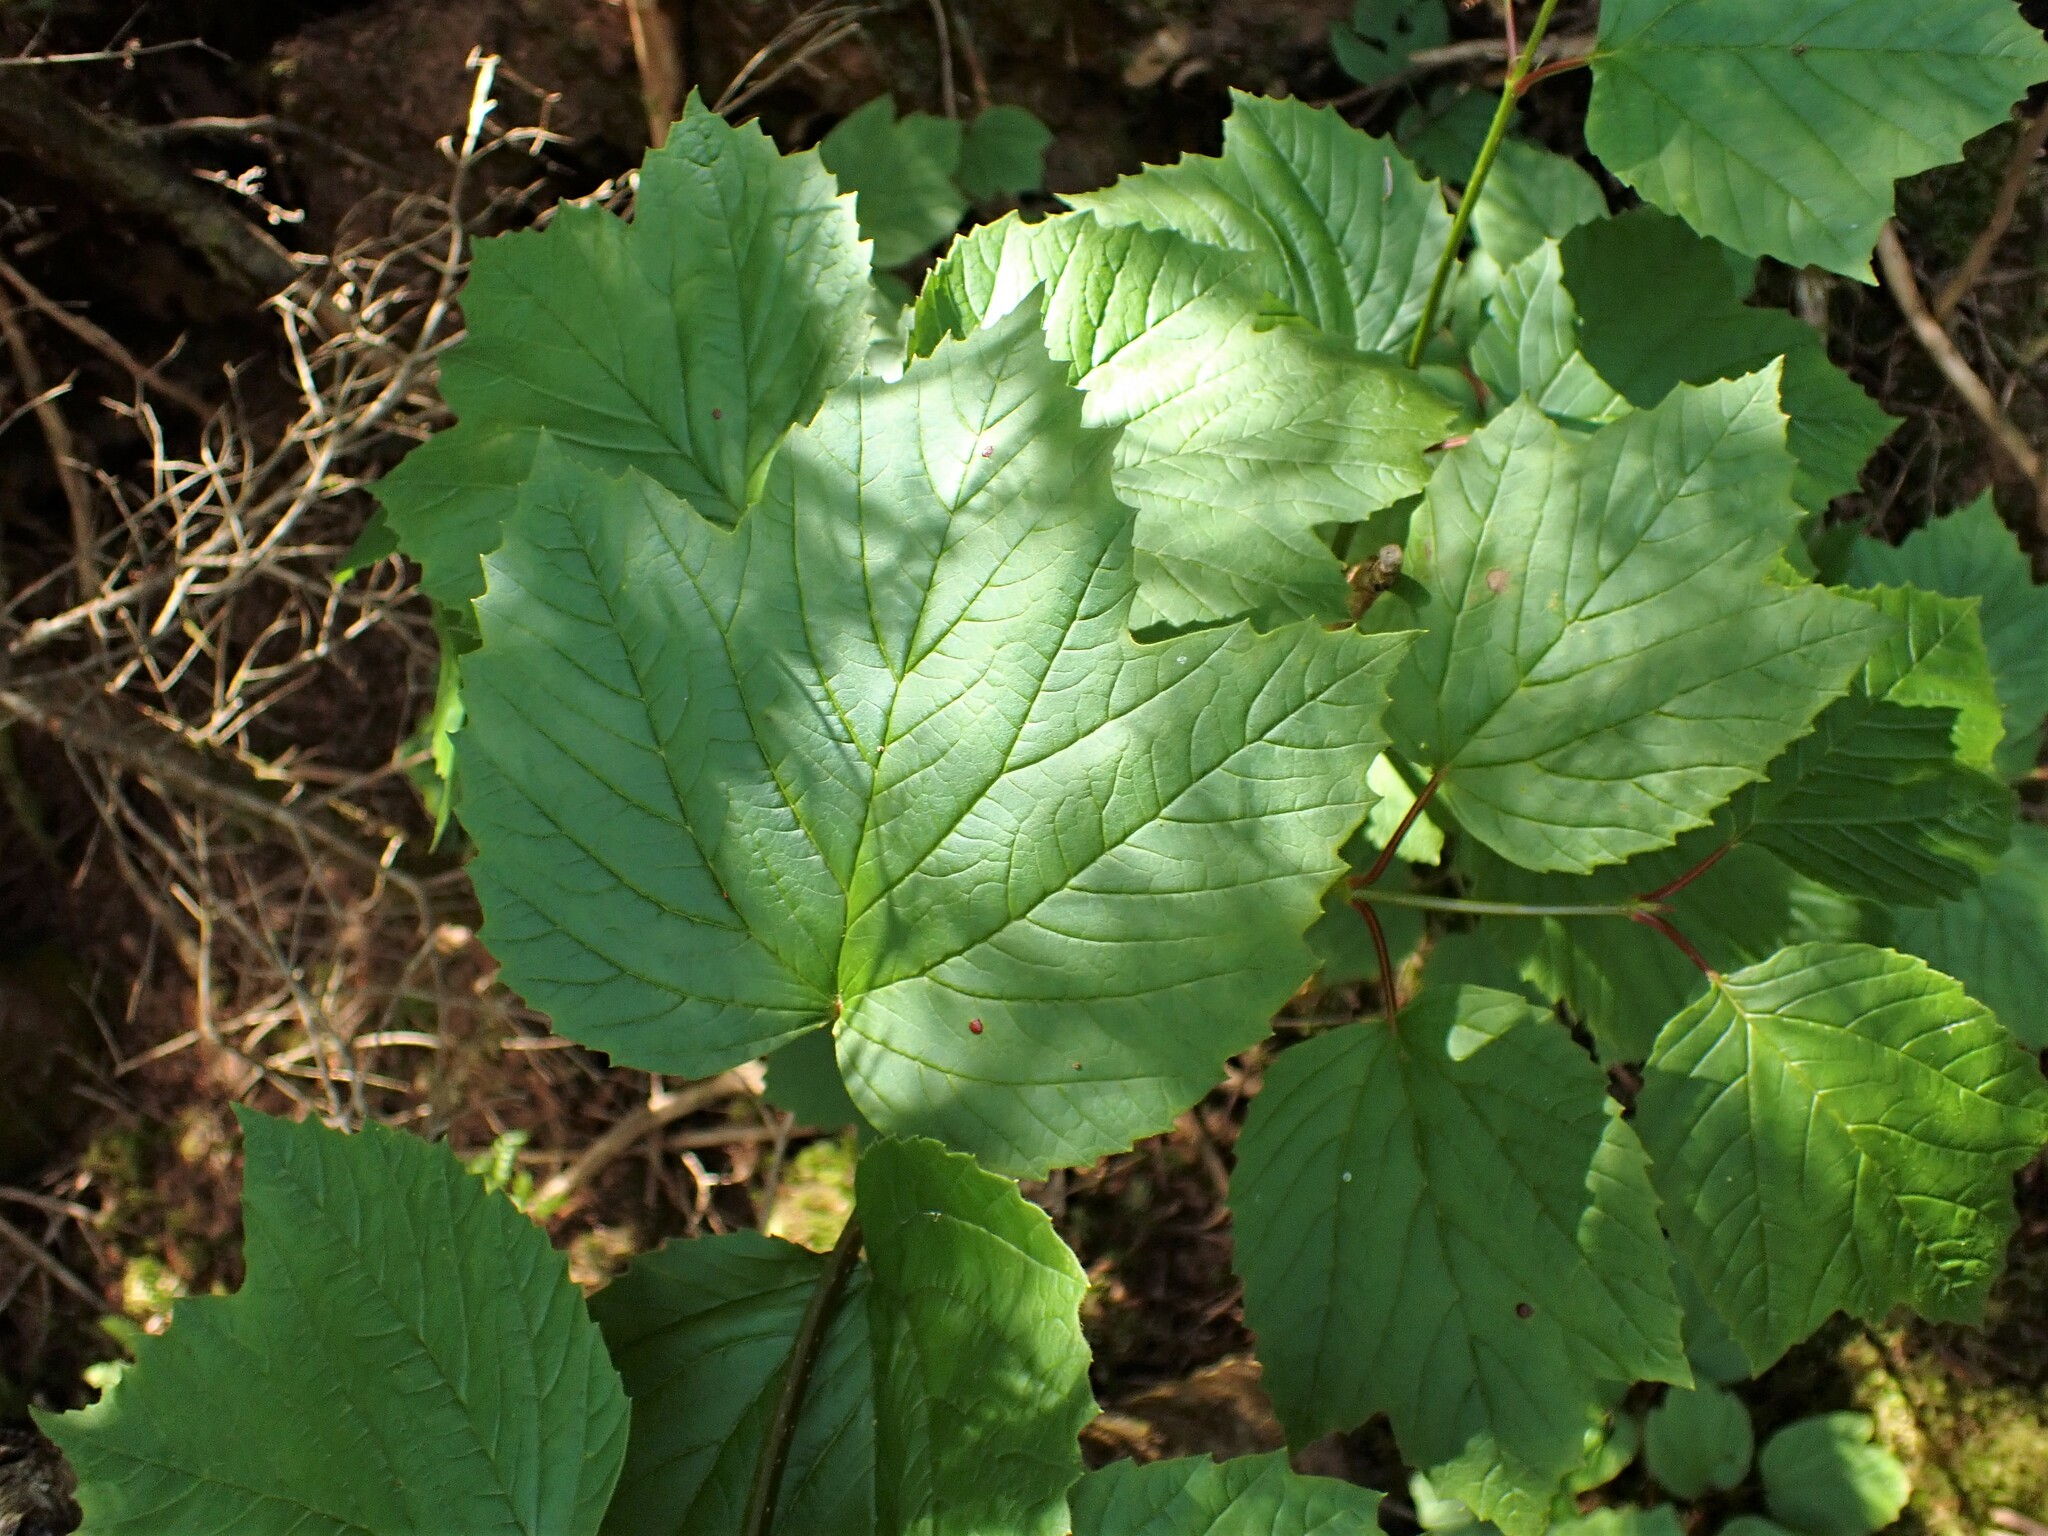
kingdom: Plantae
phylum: Tracheophyta
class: Magnoliopsida
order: Dipsacales
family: Viburnaceae
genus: Viburnum
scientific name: Viburnum edule
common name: Mooseberry
